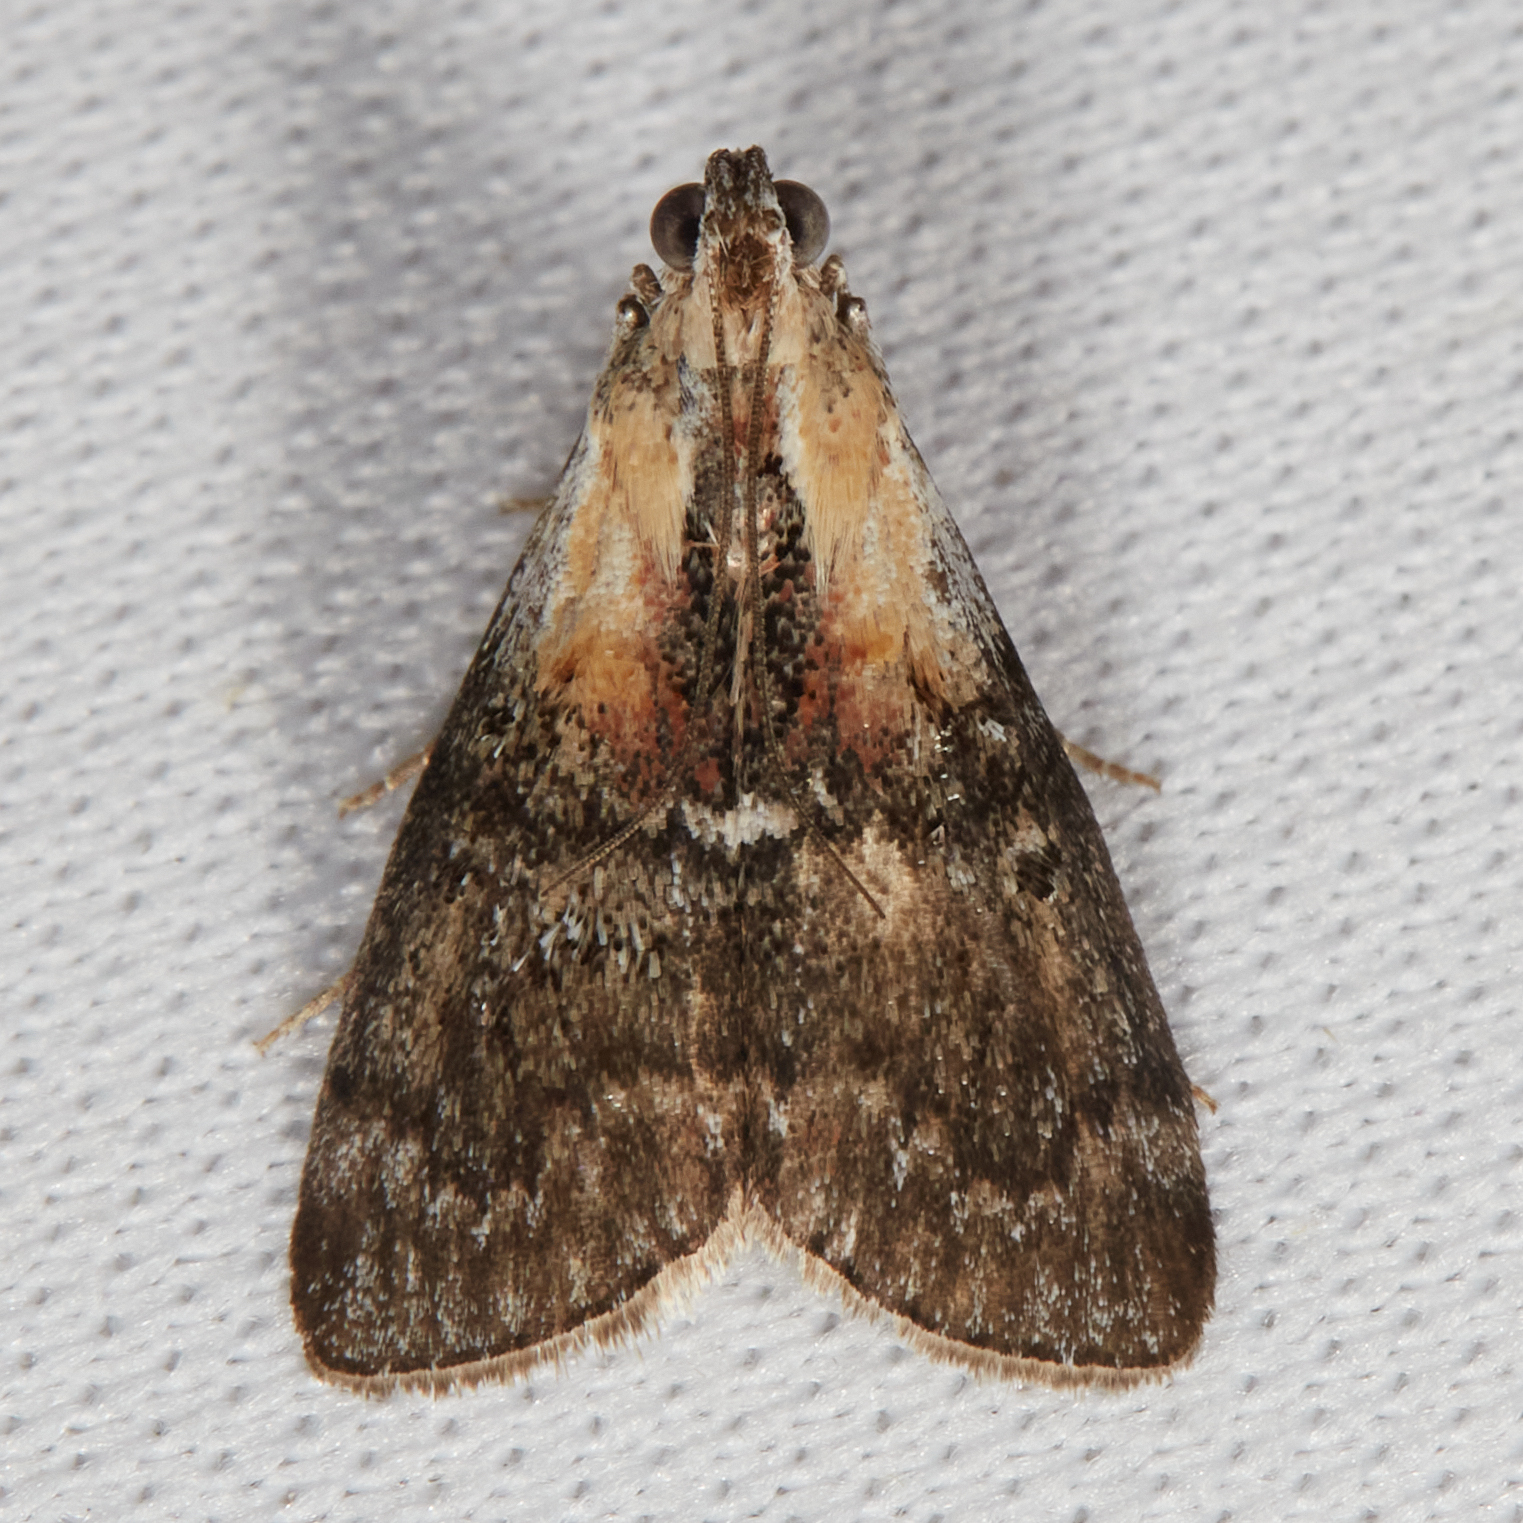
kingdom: Animalia
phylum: Arthropoda
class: Insecta
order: Lepidoptera
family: Pyralidae
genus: Pococera
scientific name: Pococera expandens
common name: Striped oak webworm moth
